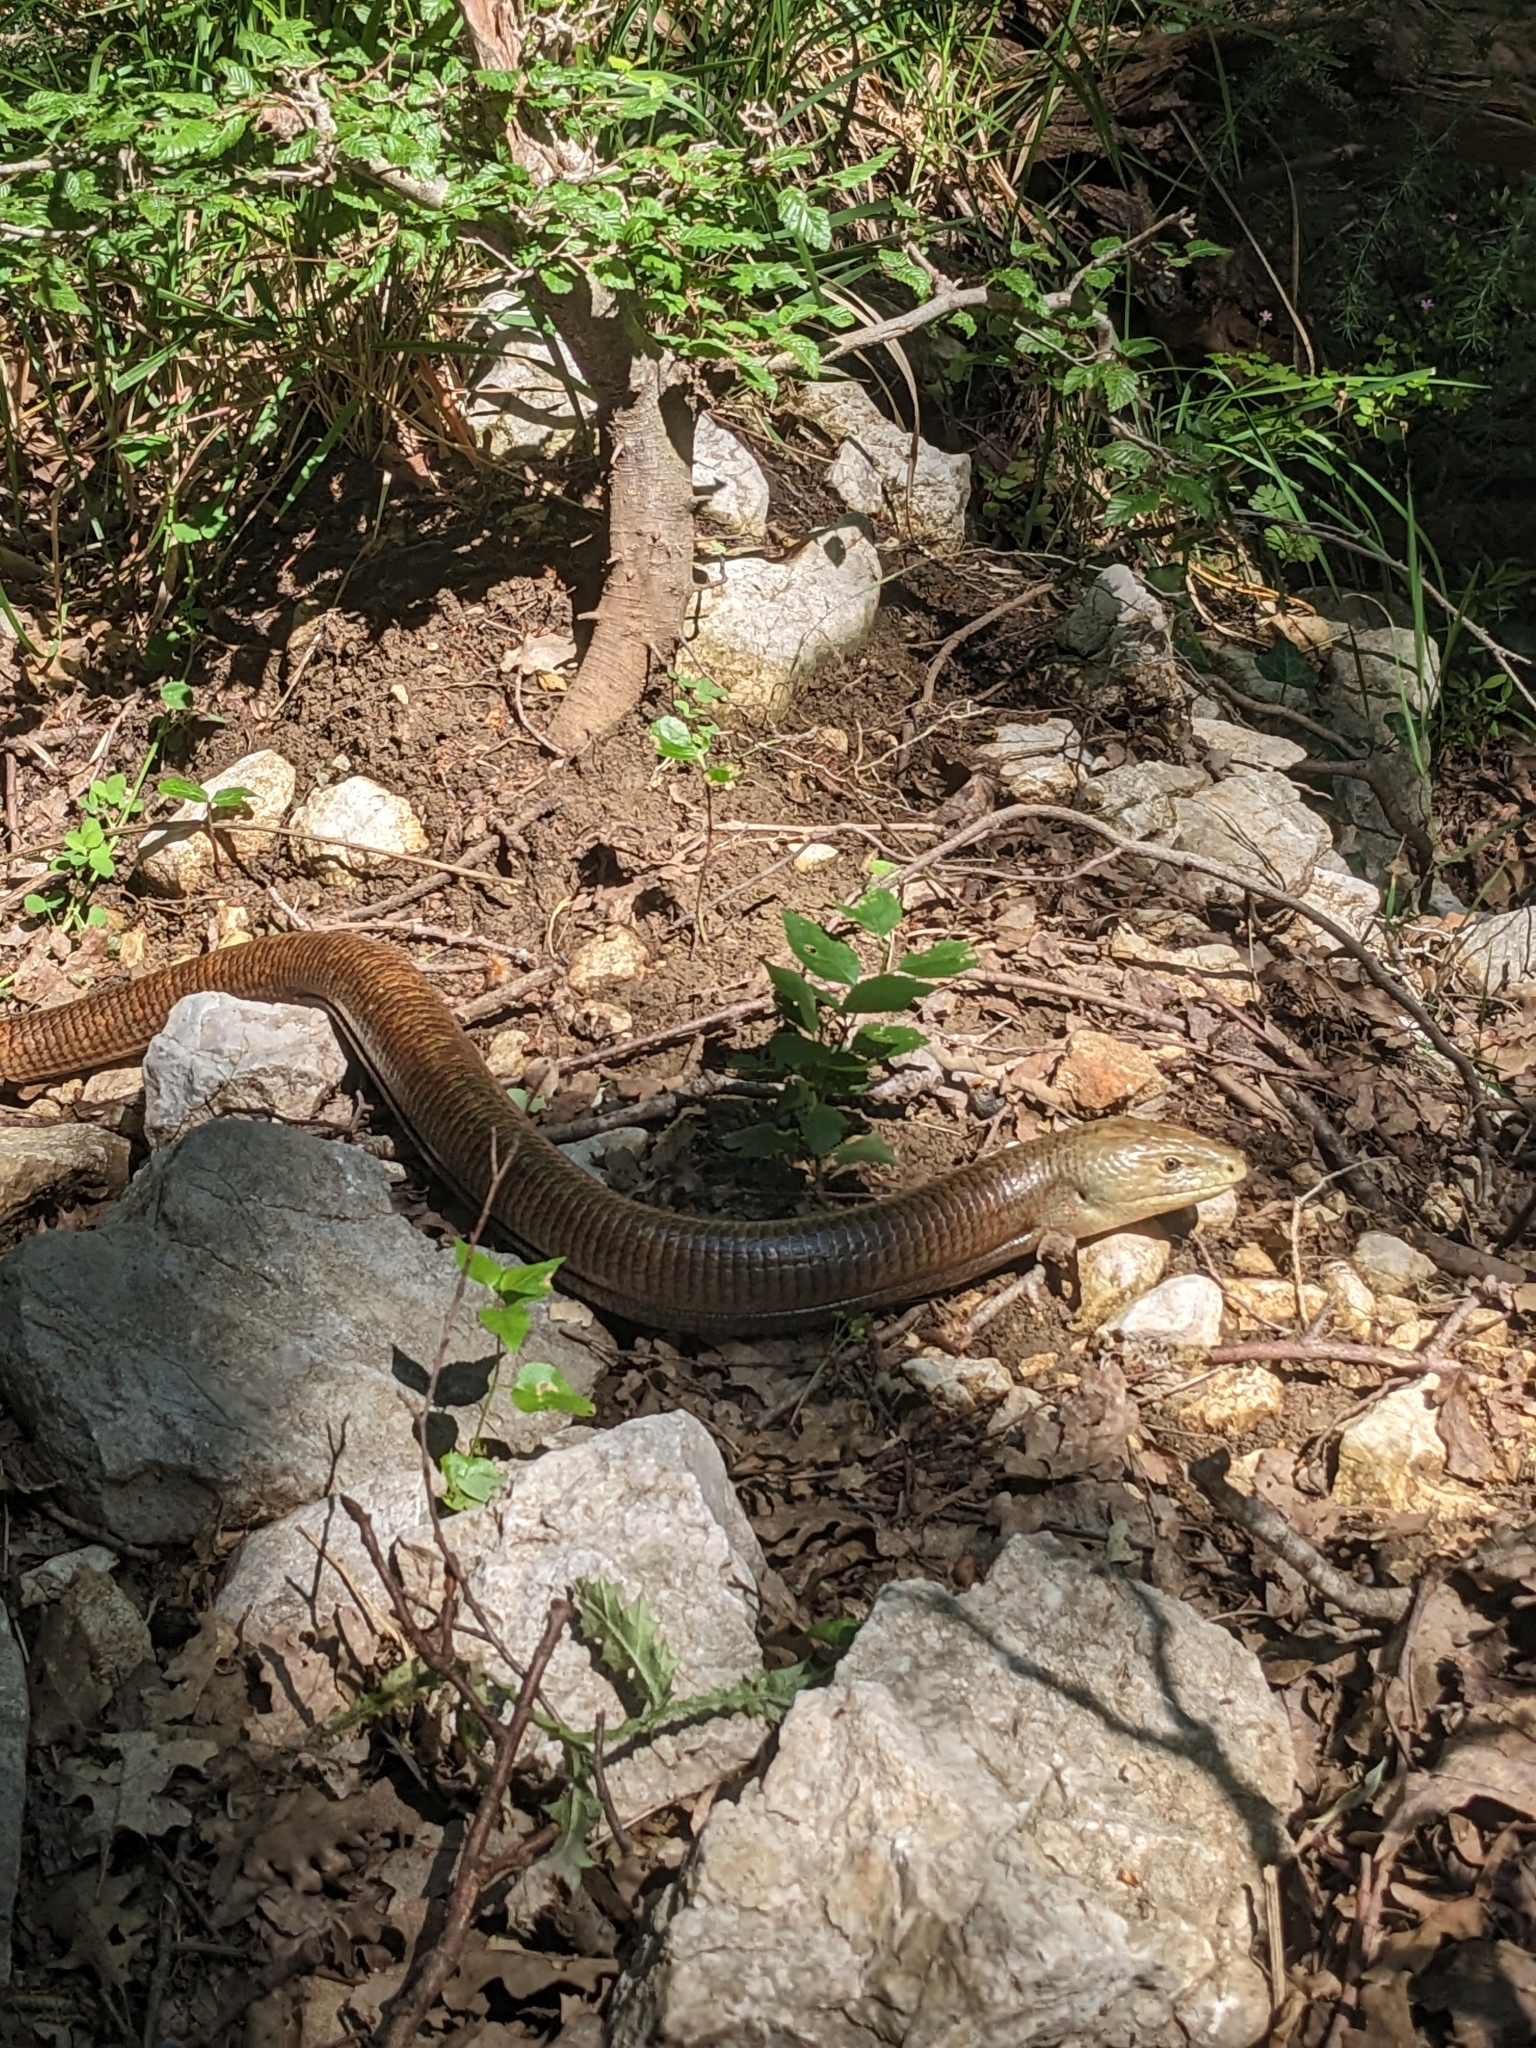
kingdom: Animalia
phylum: Chordata
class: Squamata
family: Anguidae
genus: Pseudopus
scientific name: Pseudopus apodus
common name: European glass lizard
